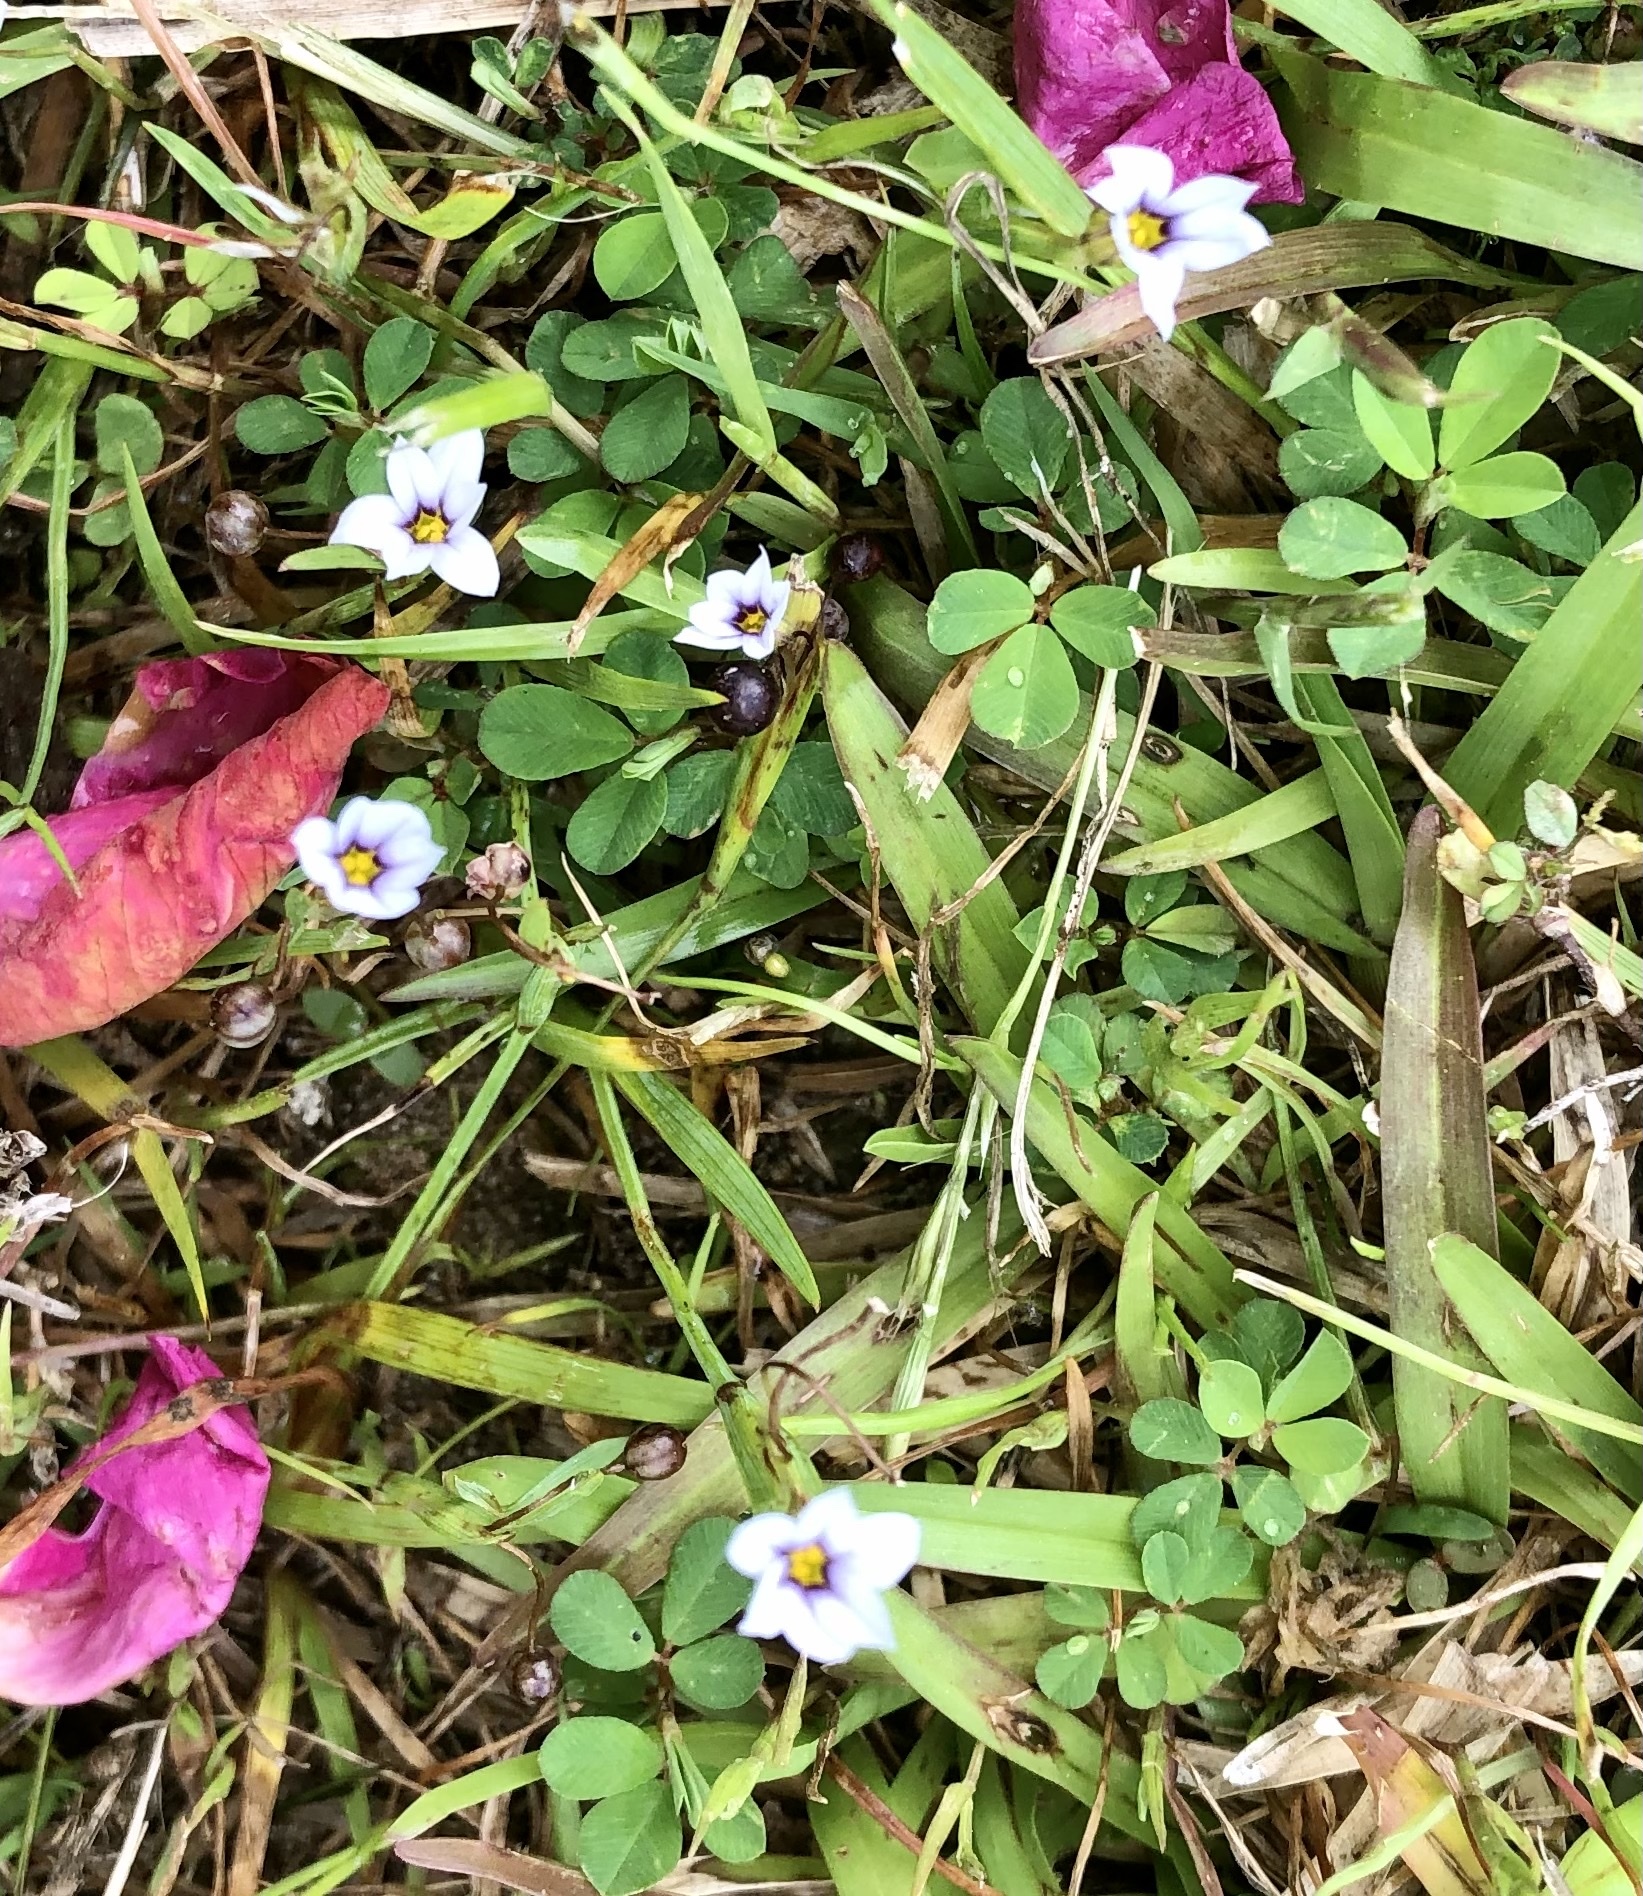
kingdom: Plantae
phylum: Tracheophyta
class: Liliopsida
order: Asparagales
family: Iridaceae
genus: Sisyrinchium
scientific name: Sisyrinchium micranthum
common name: Bermuda pigroot
